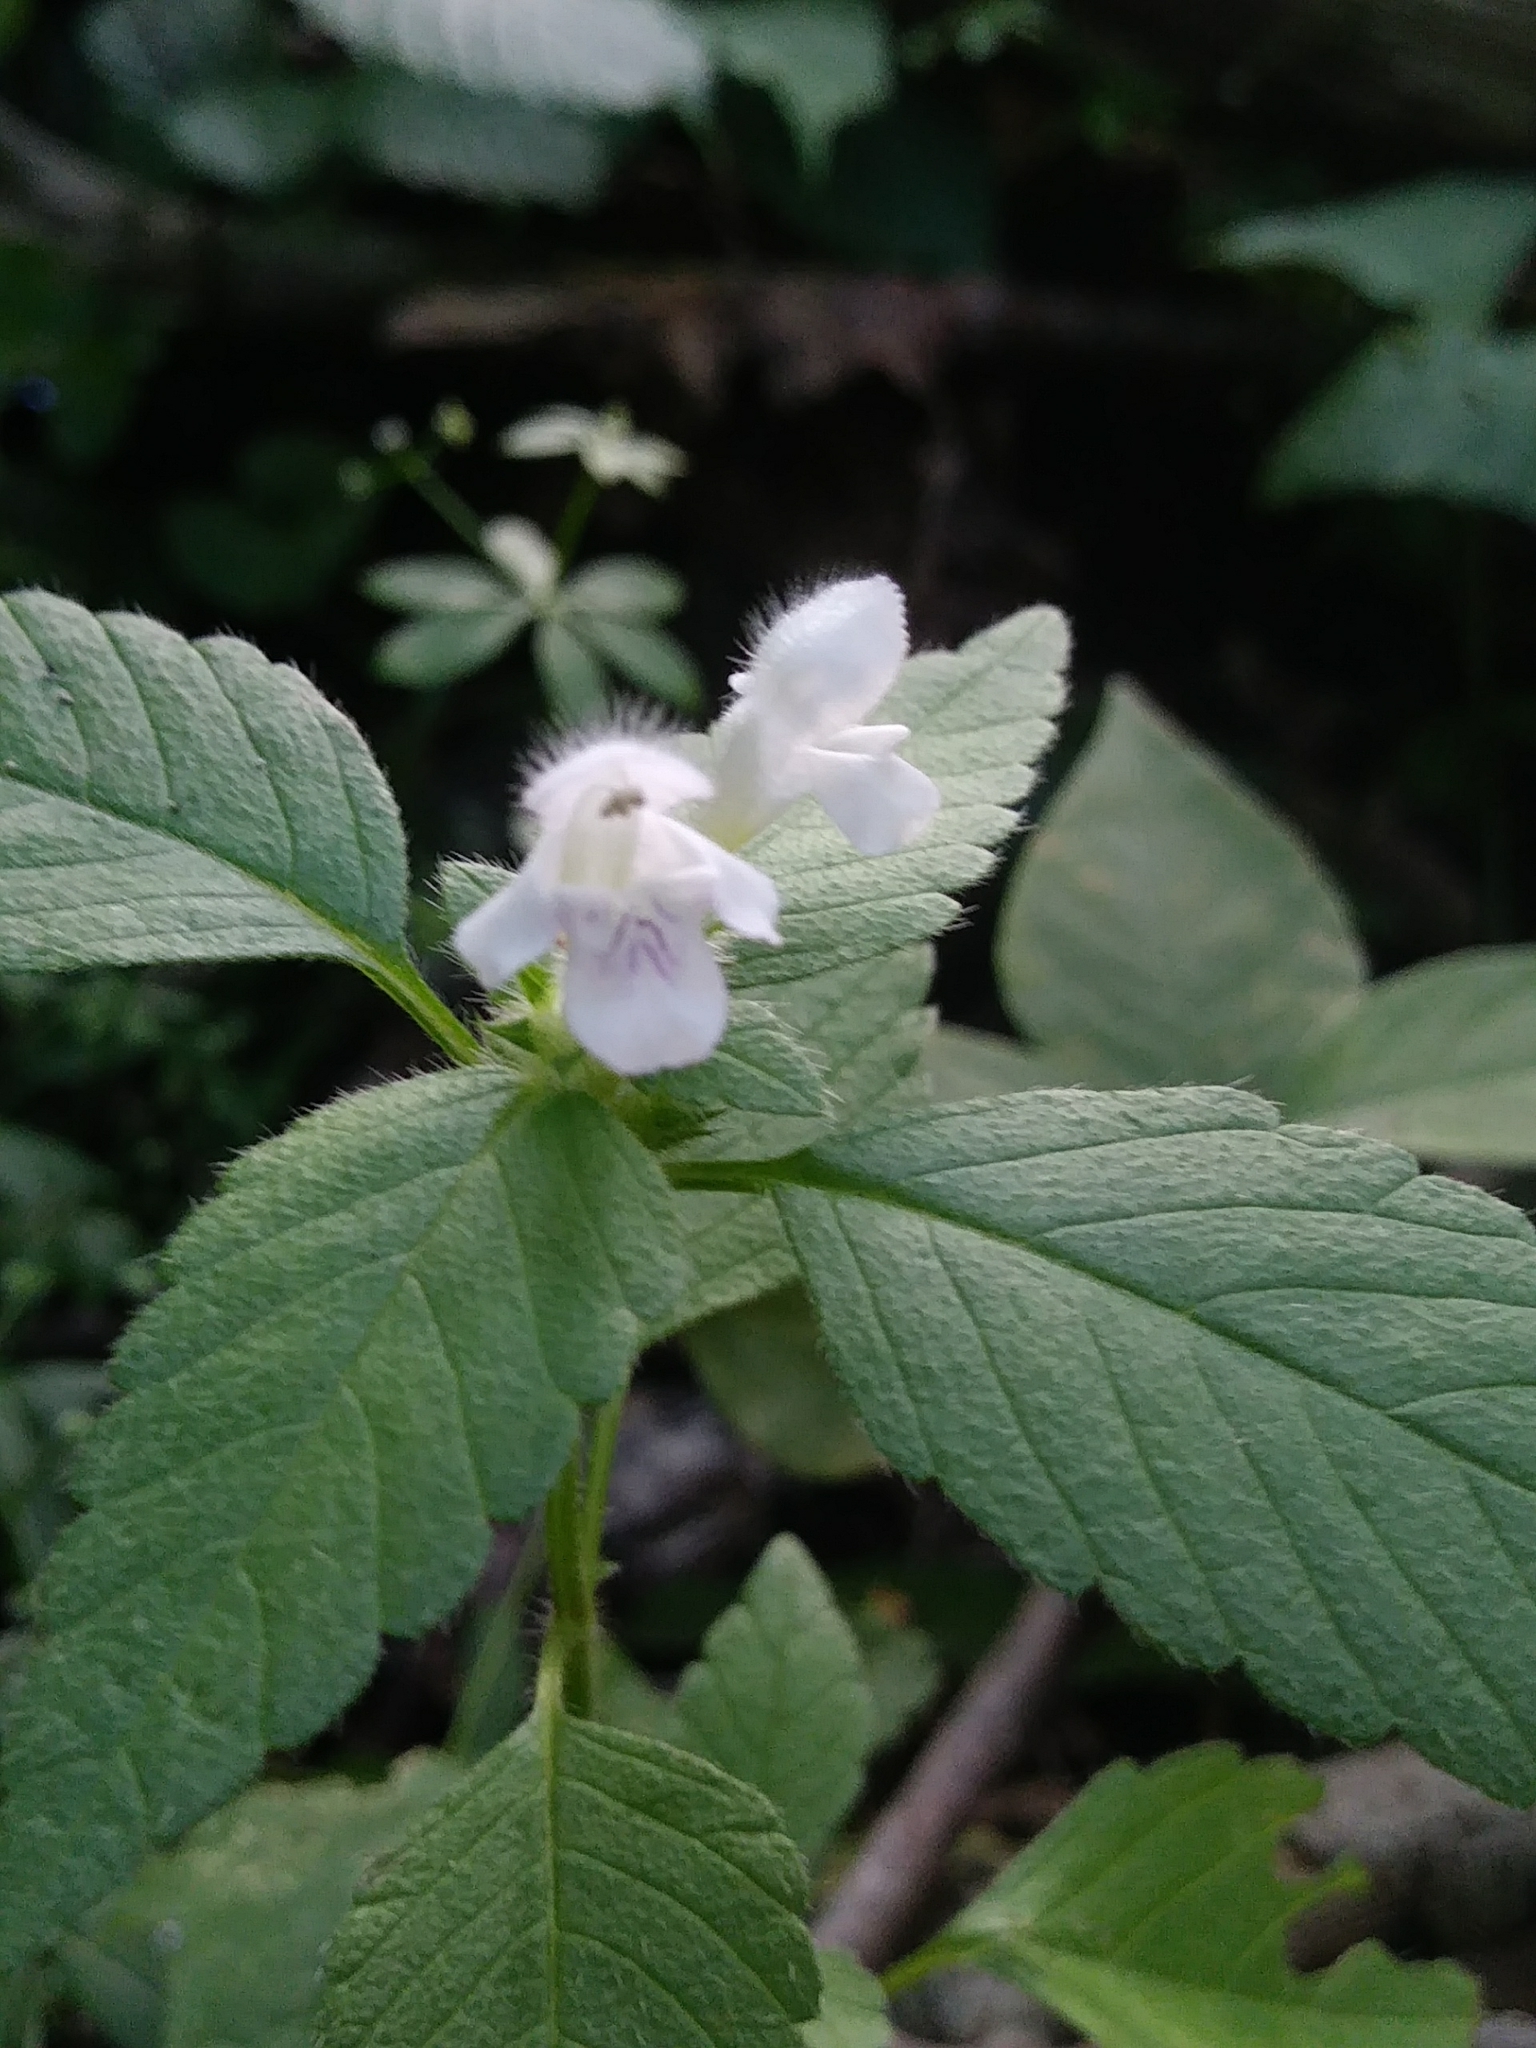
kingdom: Plantae
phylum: Tracheophyta
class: Magnoliopsida
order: Lamiales
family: Lamiaceae
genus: Galeopsis
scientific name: Galeopsis tetrahit
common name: Common hemp-nettle
